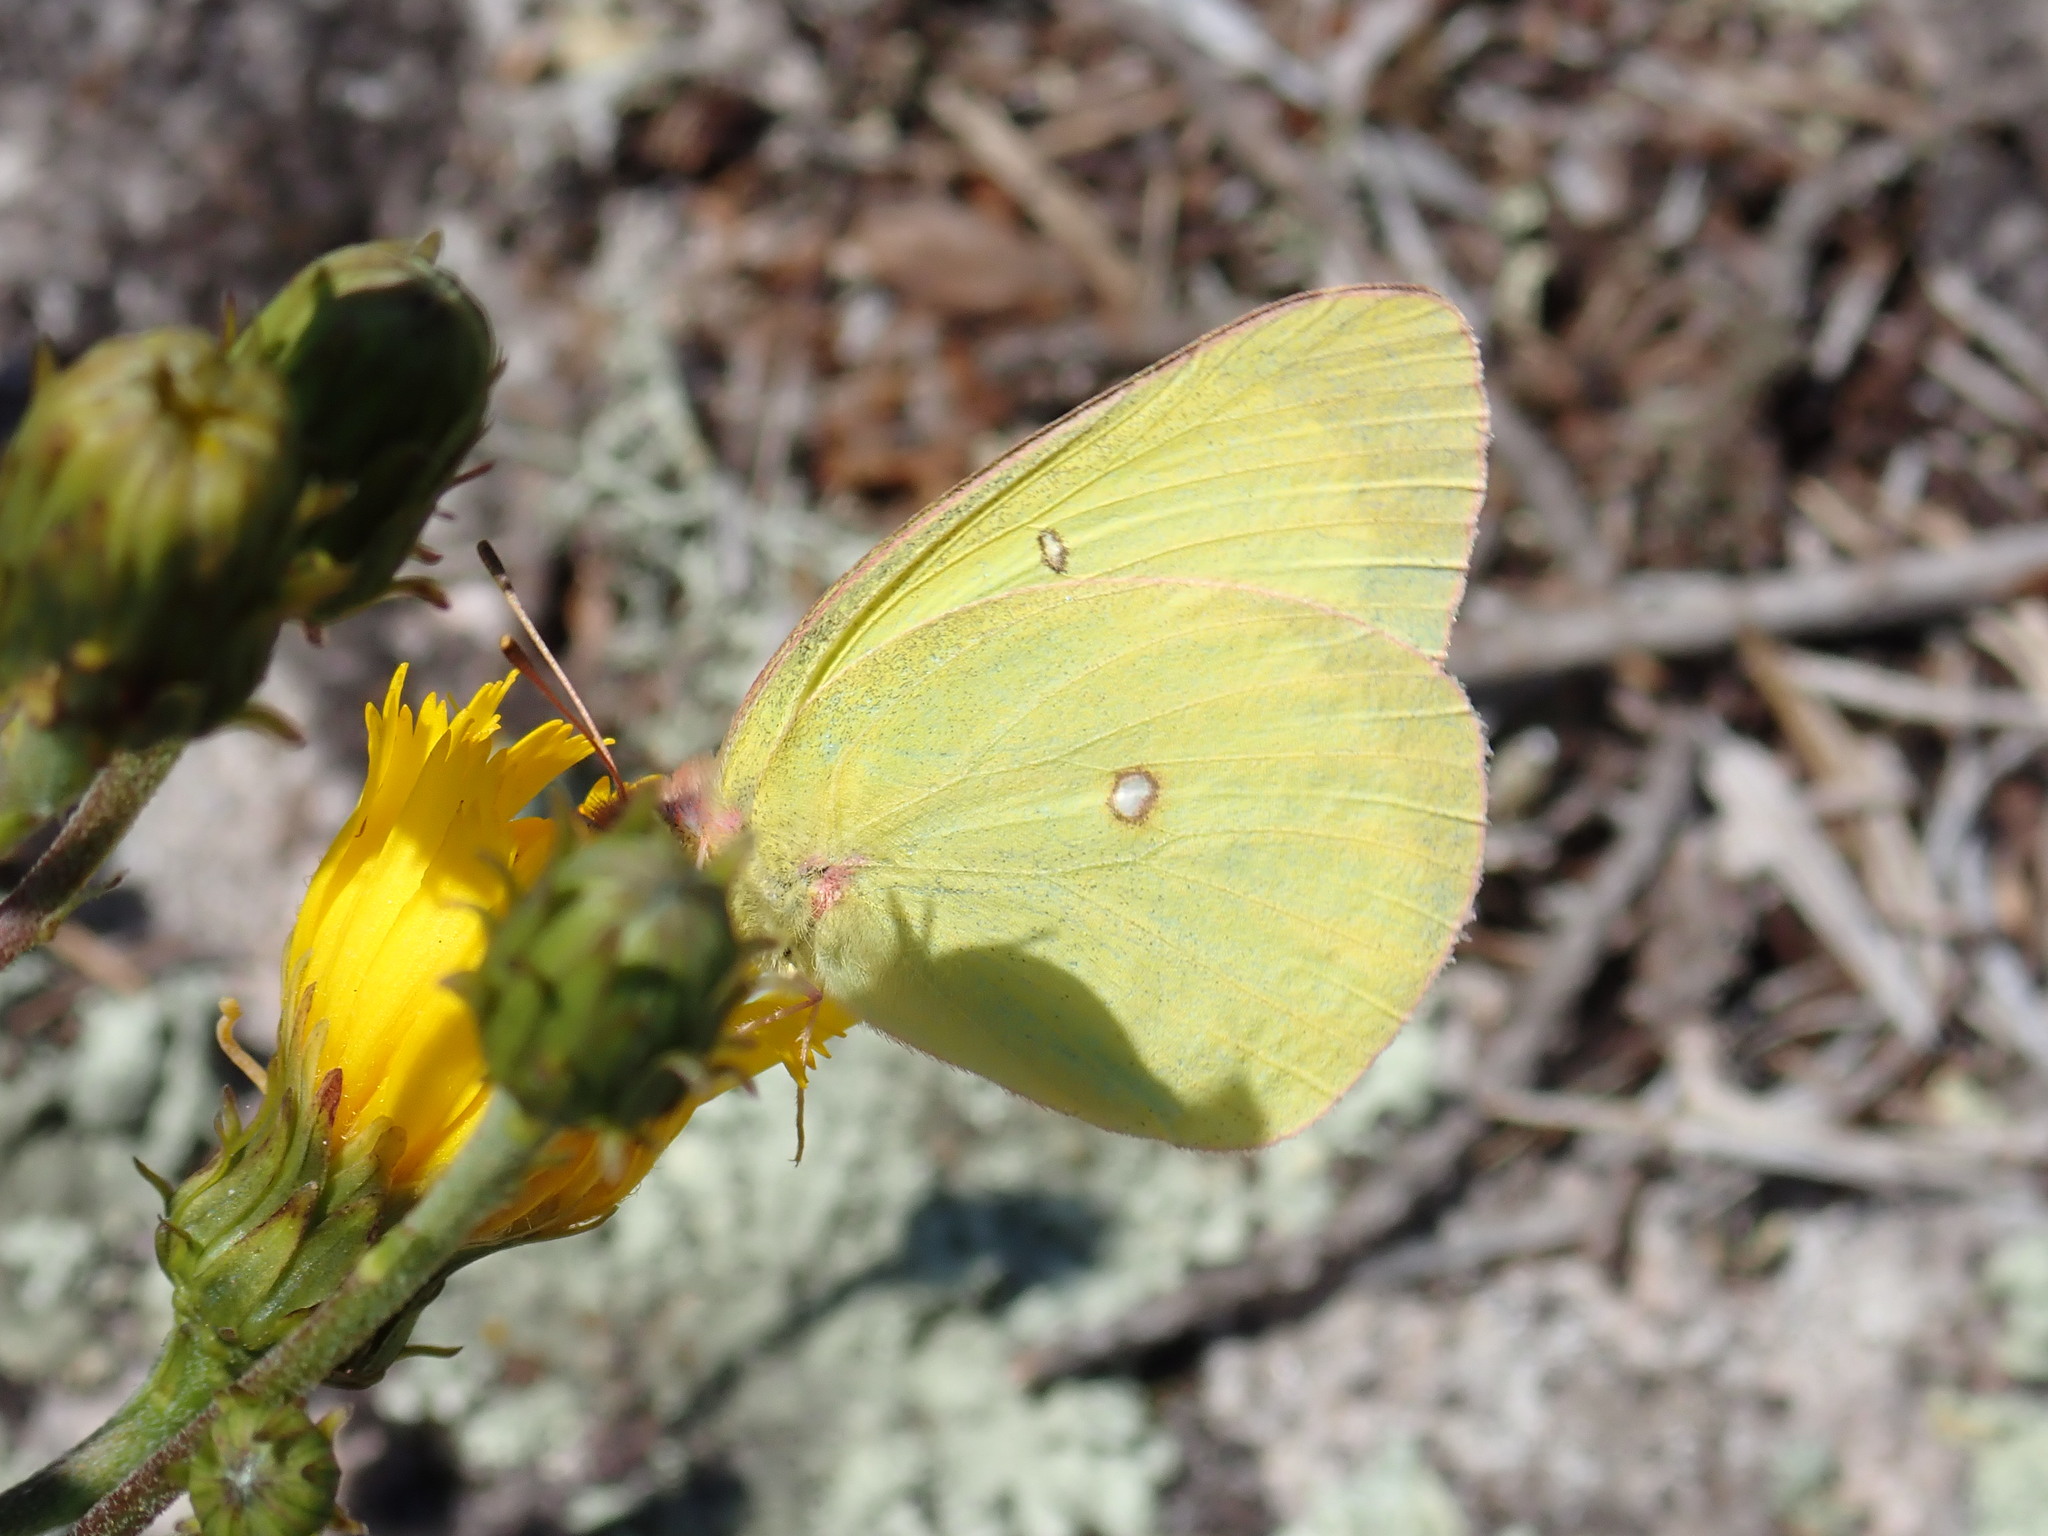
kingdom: Animalia
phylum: Arthropoda
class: Insecta
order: Lepidoptera
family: Pieridae
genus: Colias
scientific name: Colias interior
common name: Pink-edged sulphur
